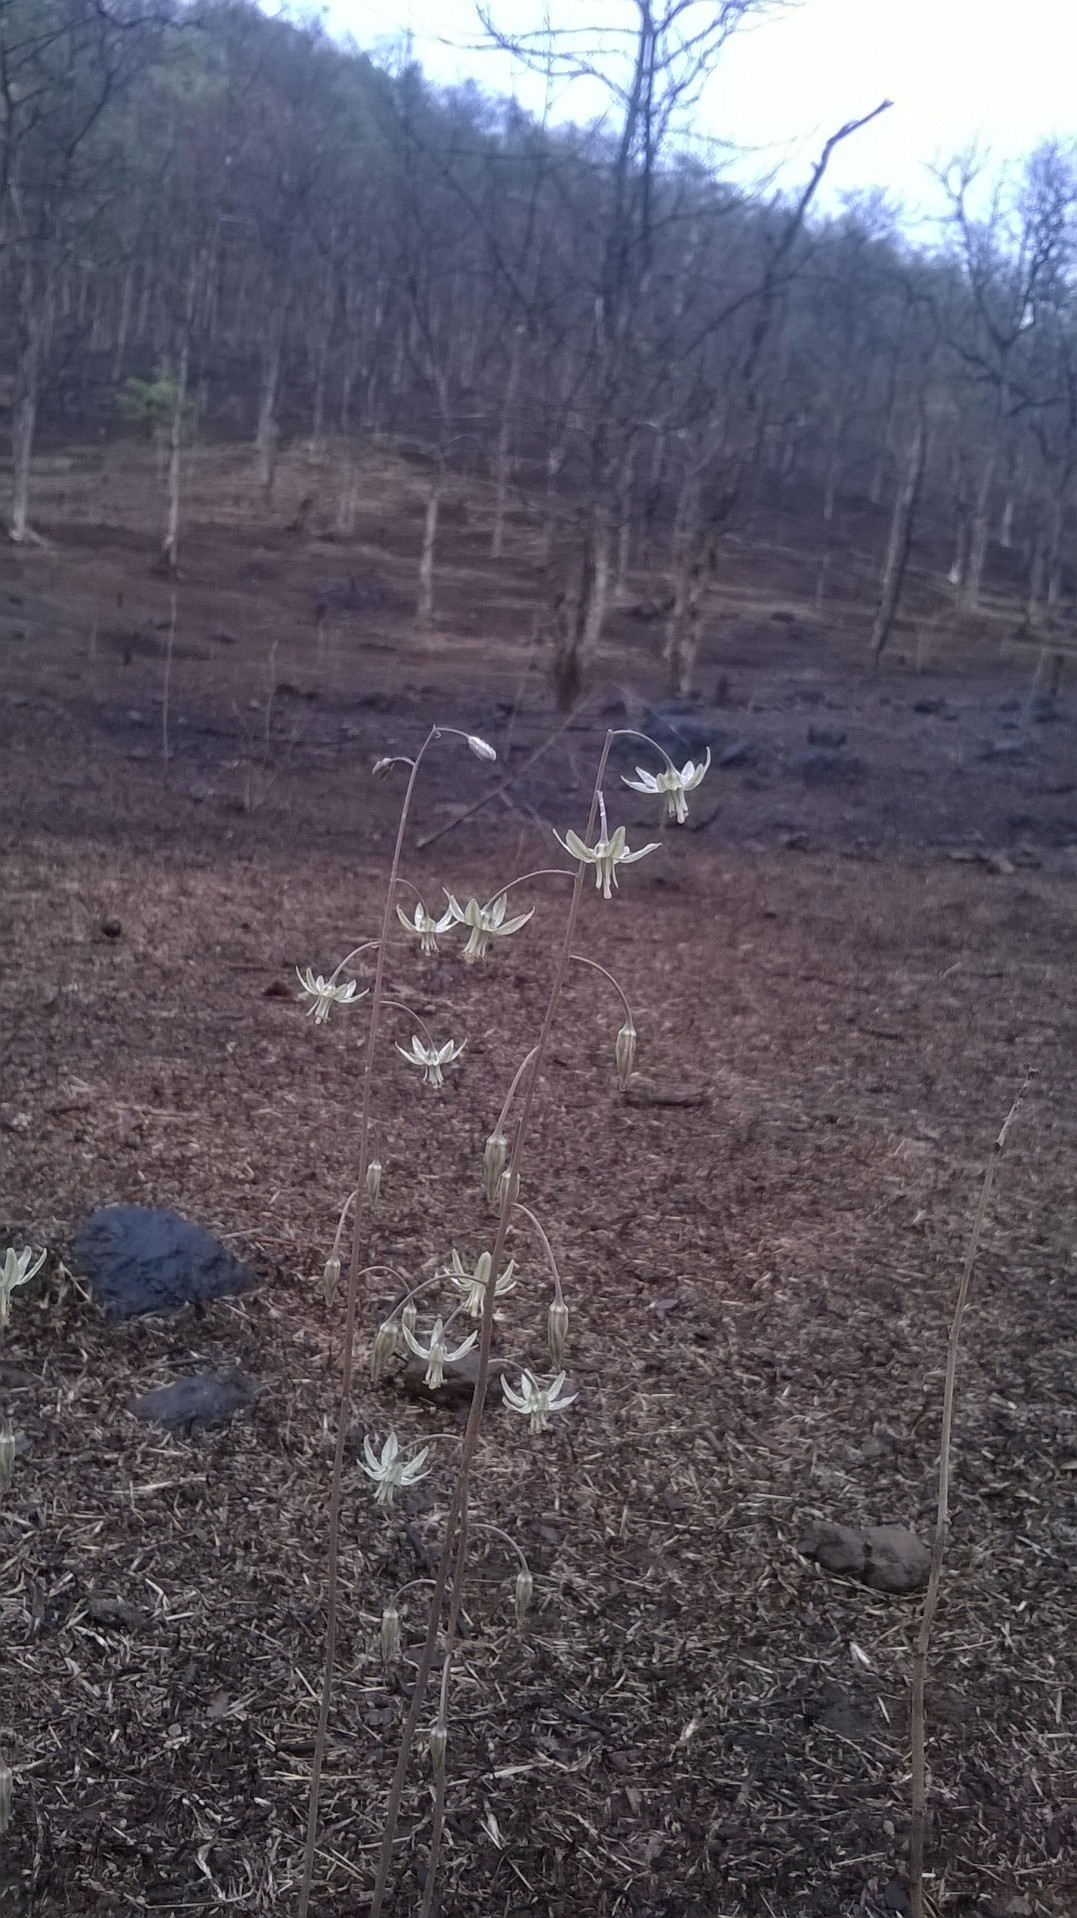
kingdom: Plantae
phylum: Tracheophyta
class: Liliopsida
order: Asparagales
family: Asparagaceae
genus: Drimia
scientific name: Drimia indica
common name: Indian-squill
